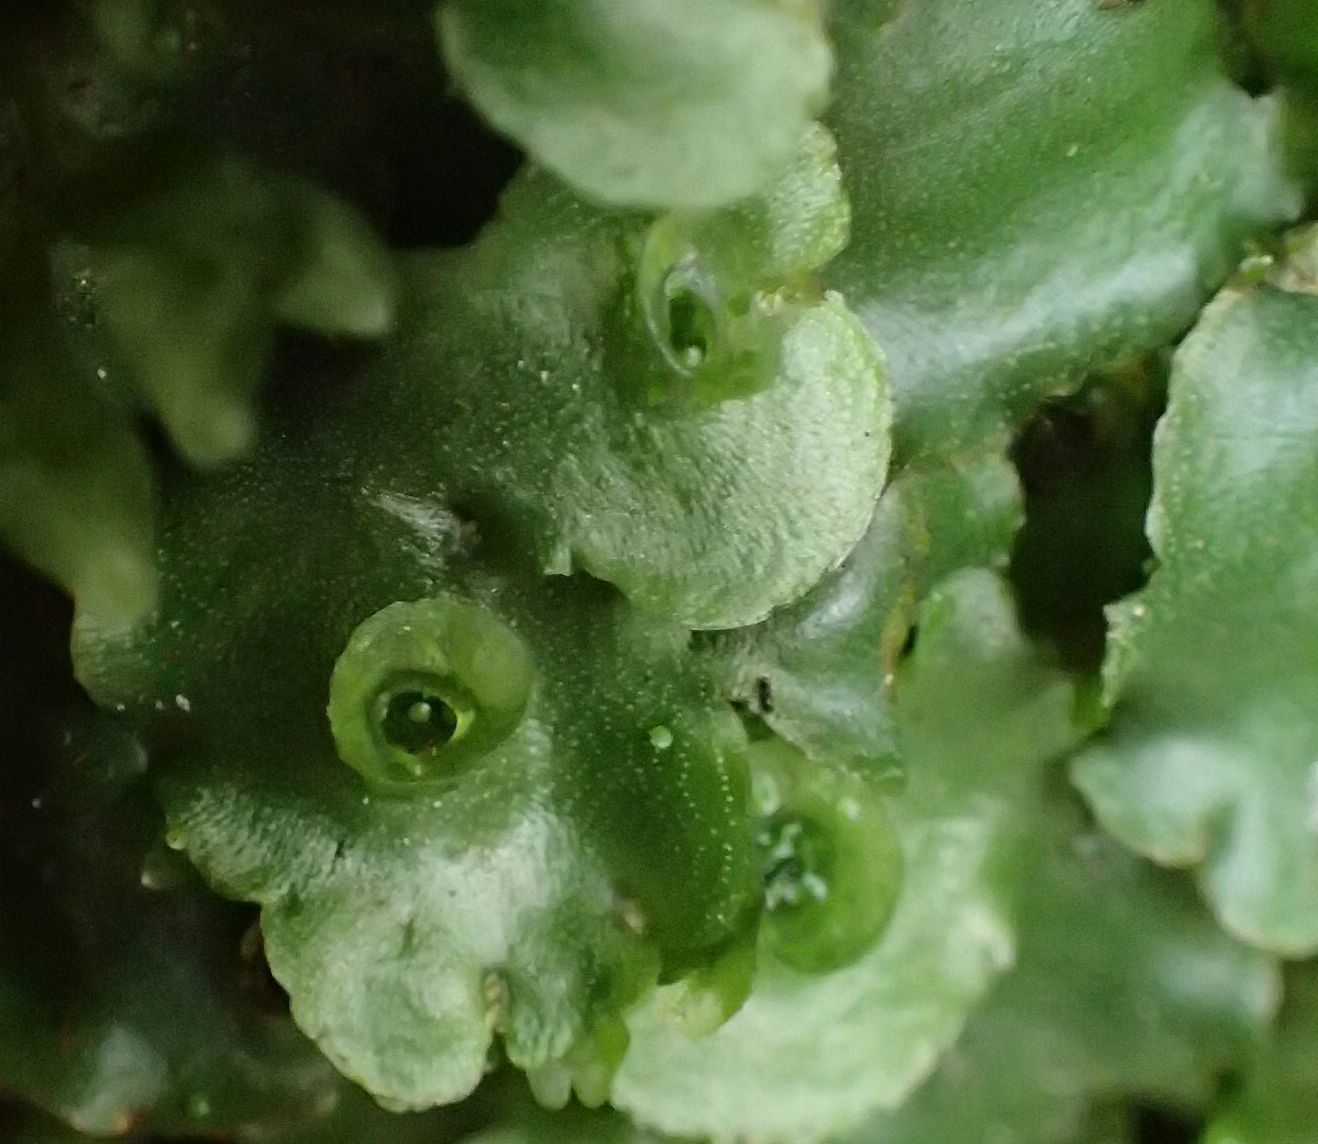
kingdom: Plantae
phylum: Marchantiophyta
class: Marchantiopsida
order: Marchantiales
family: Marchantiaceae
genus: Marchantia
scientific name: Marchantia berteroana
